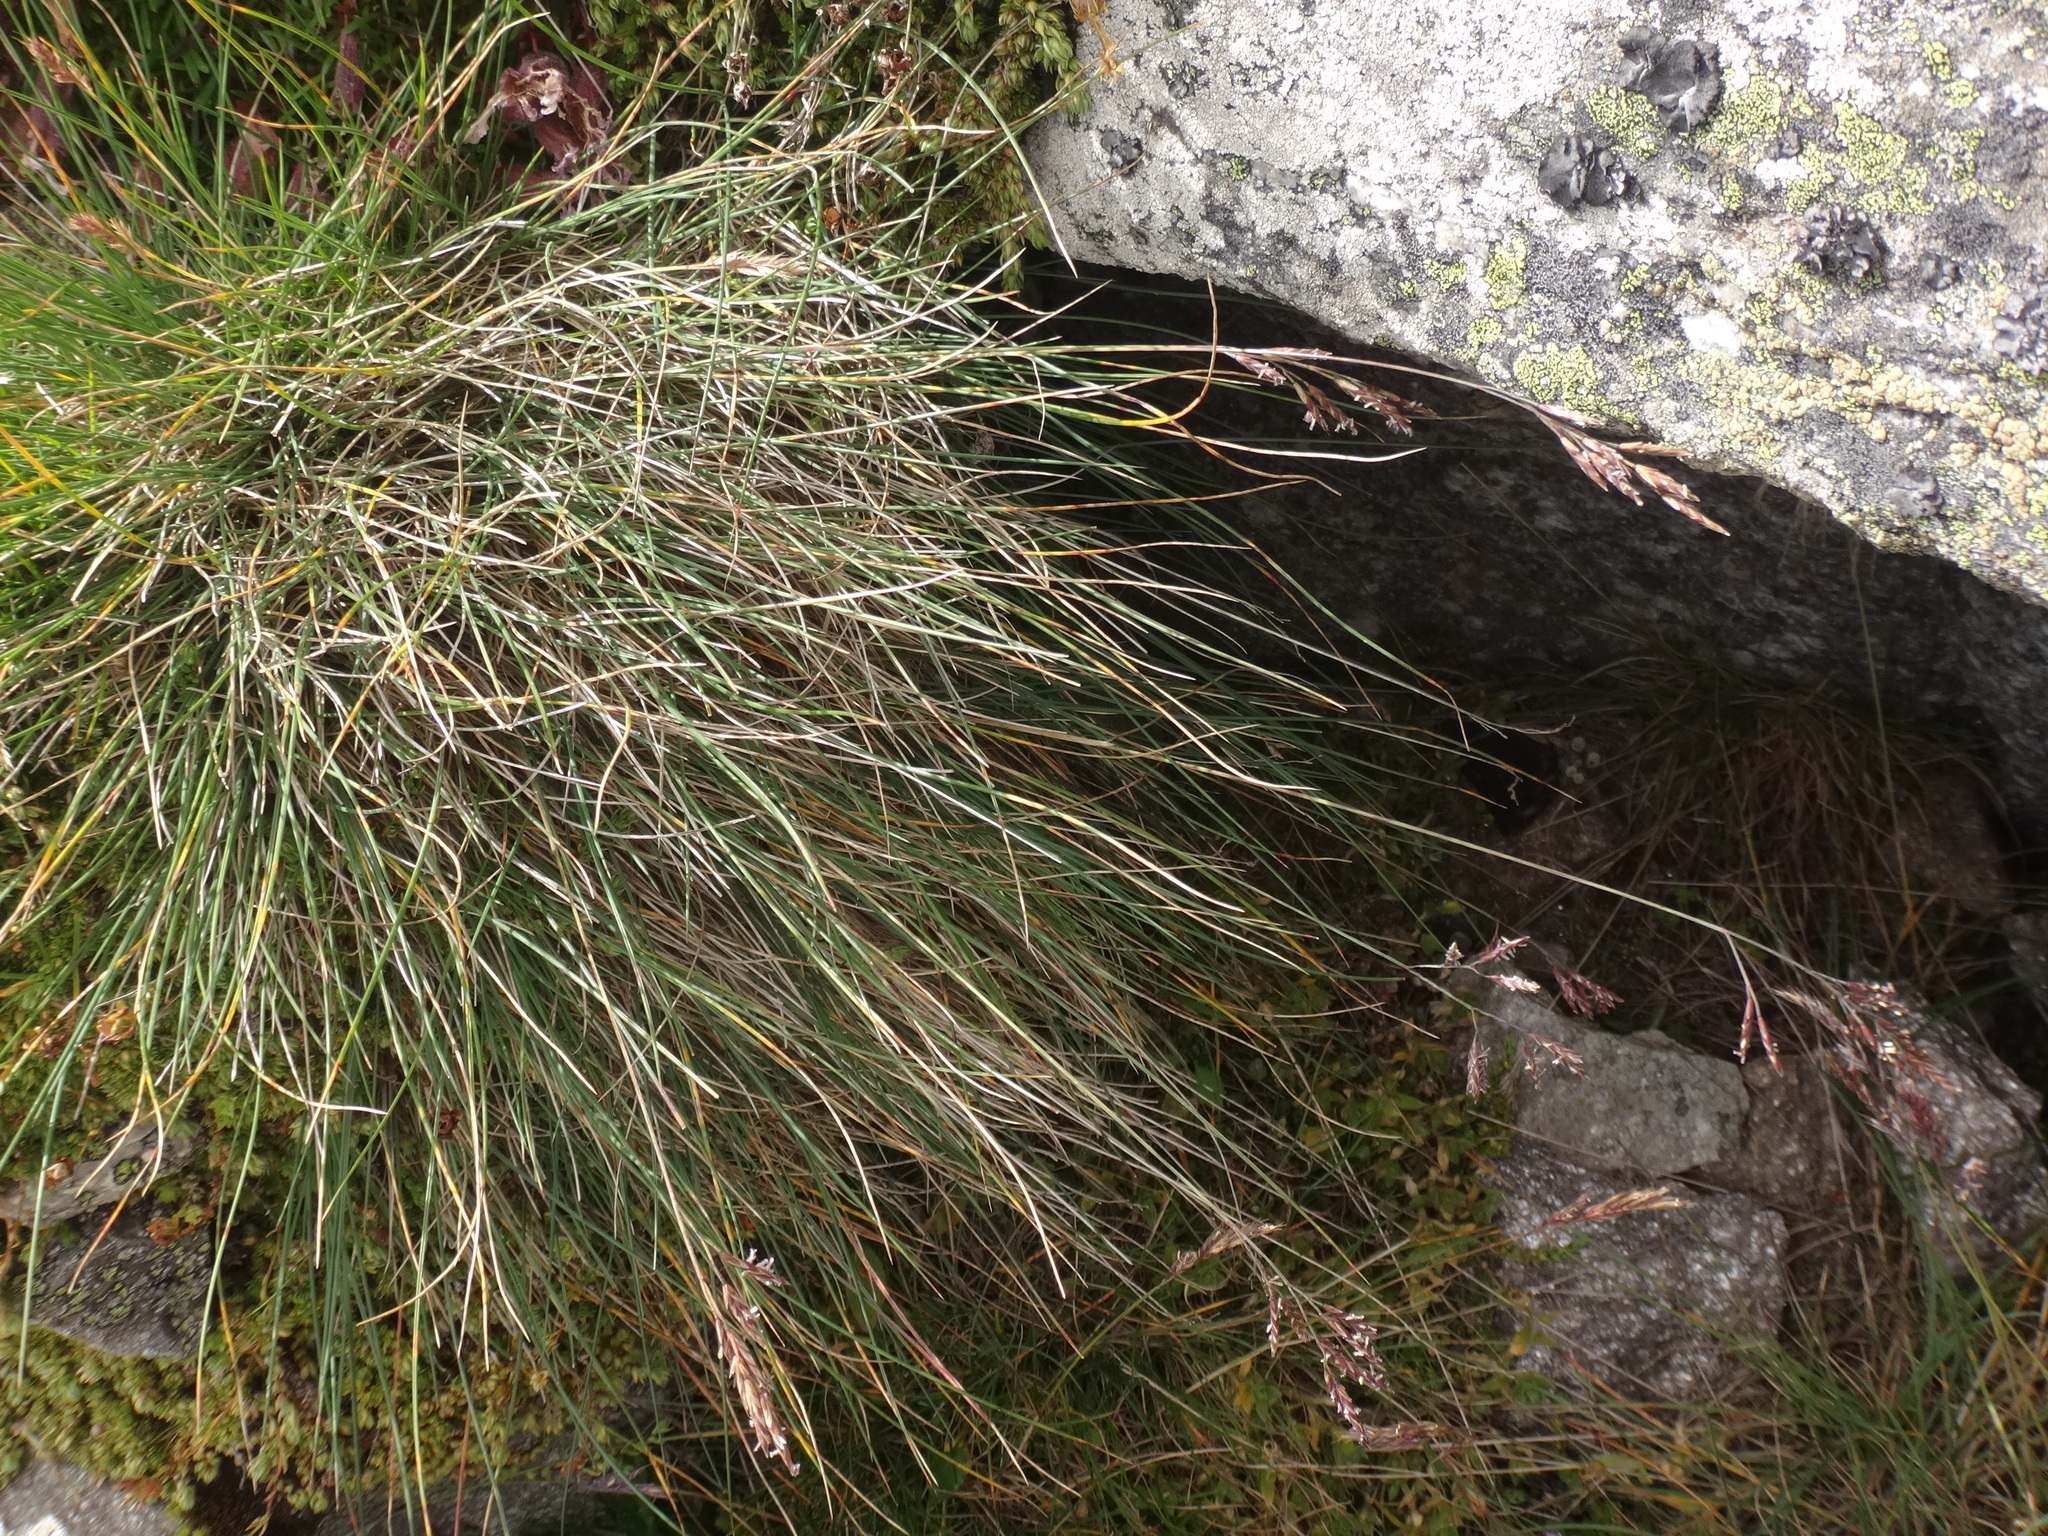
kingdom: Plantae
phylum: Tracheophyta
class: Liliopsida
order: Poales
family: Poaceae
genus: Festuca
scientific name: Festuca varia
